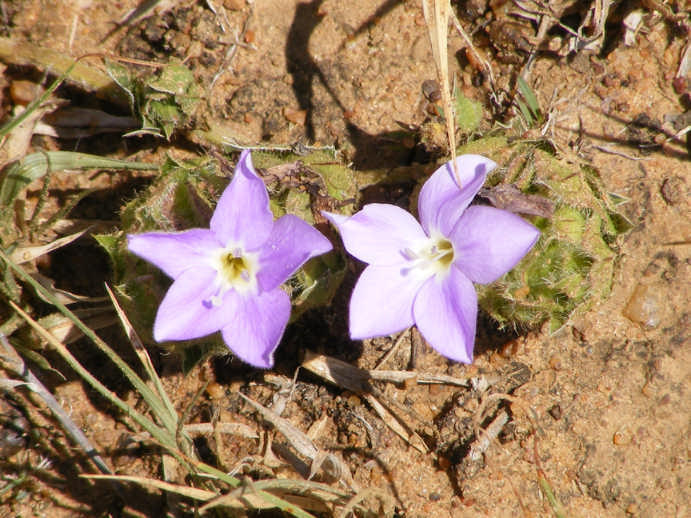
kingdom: Plantae
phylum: Tracheophyta
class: Magnoliopsida
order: Lamiales
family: Acanthaceae
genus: Barleria
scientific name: Barleria macrostegia
